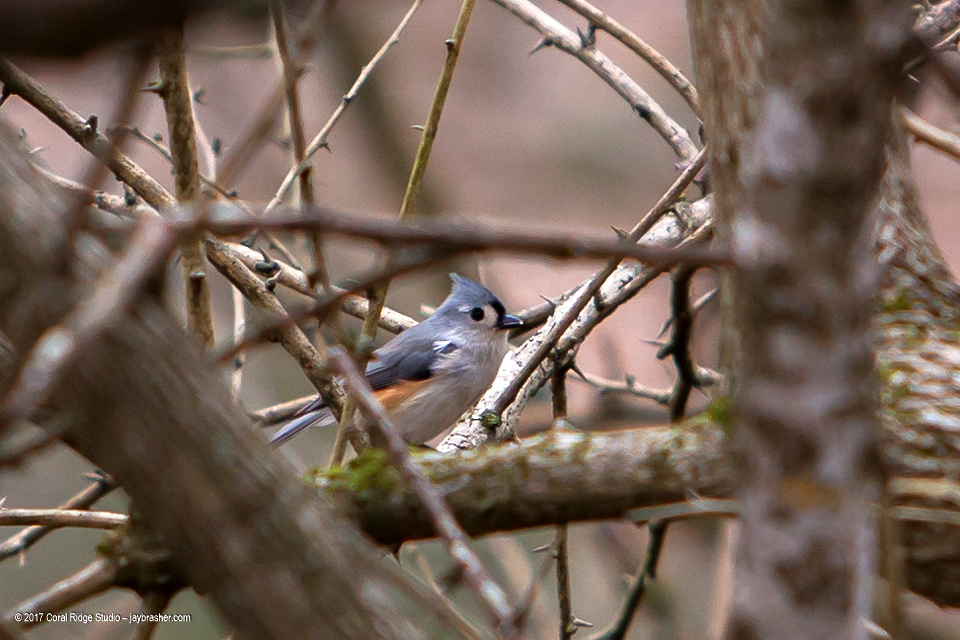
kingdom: Animalia
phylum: Chordata
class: Aves
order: Passeriformes
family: Paridae
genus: Baeolophus
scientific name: Baeolophus bicolor
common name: Tufted titmouse
